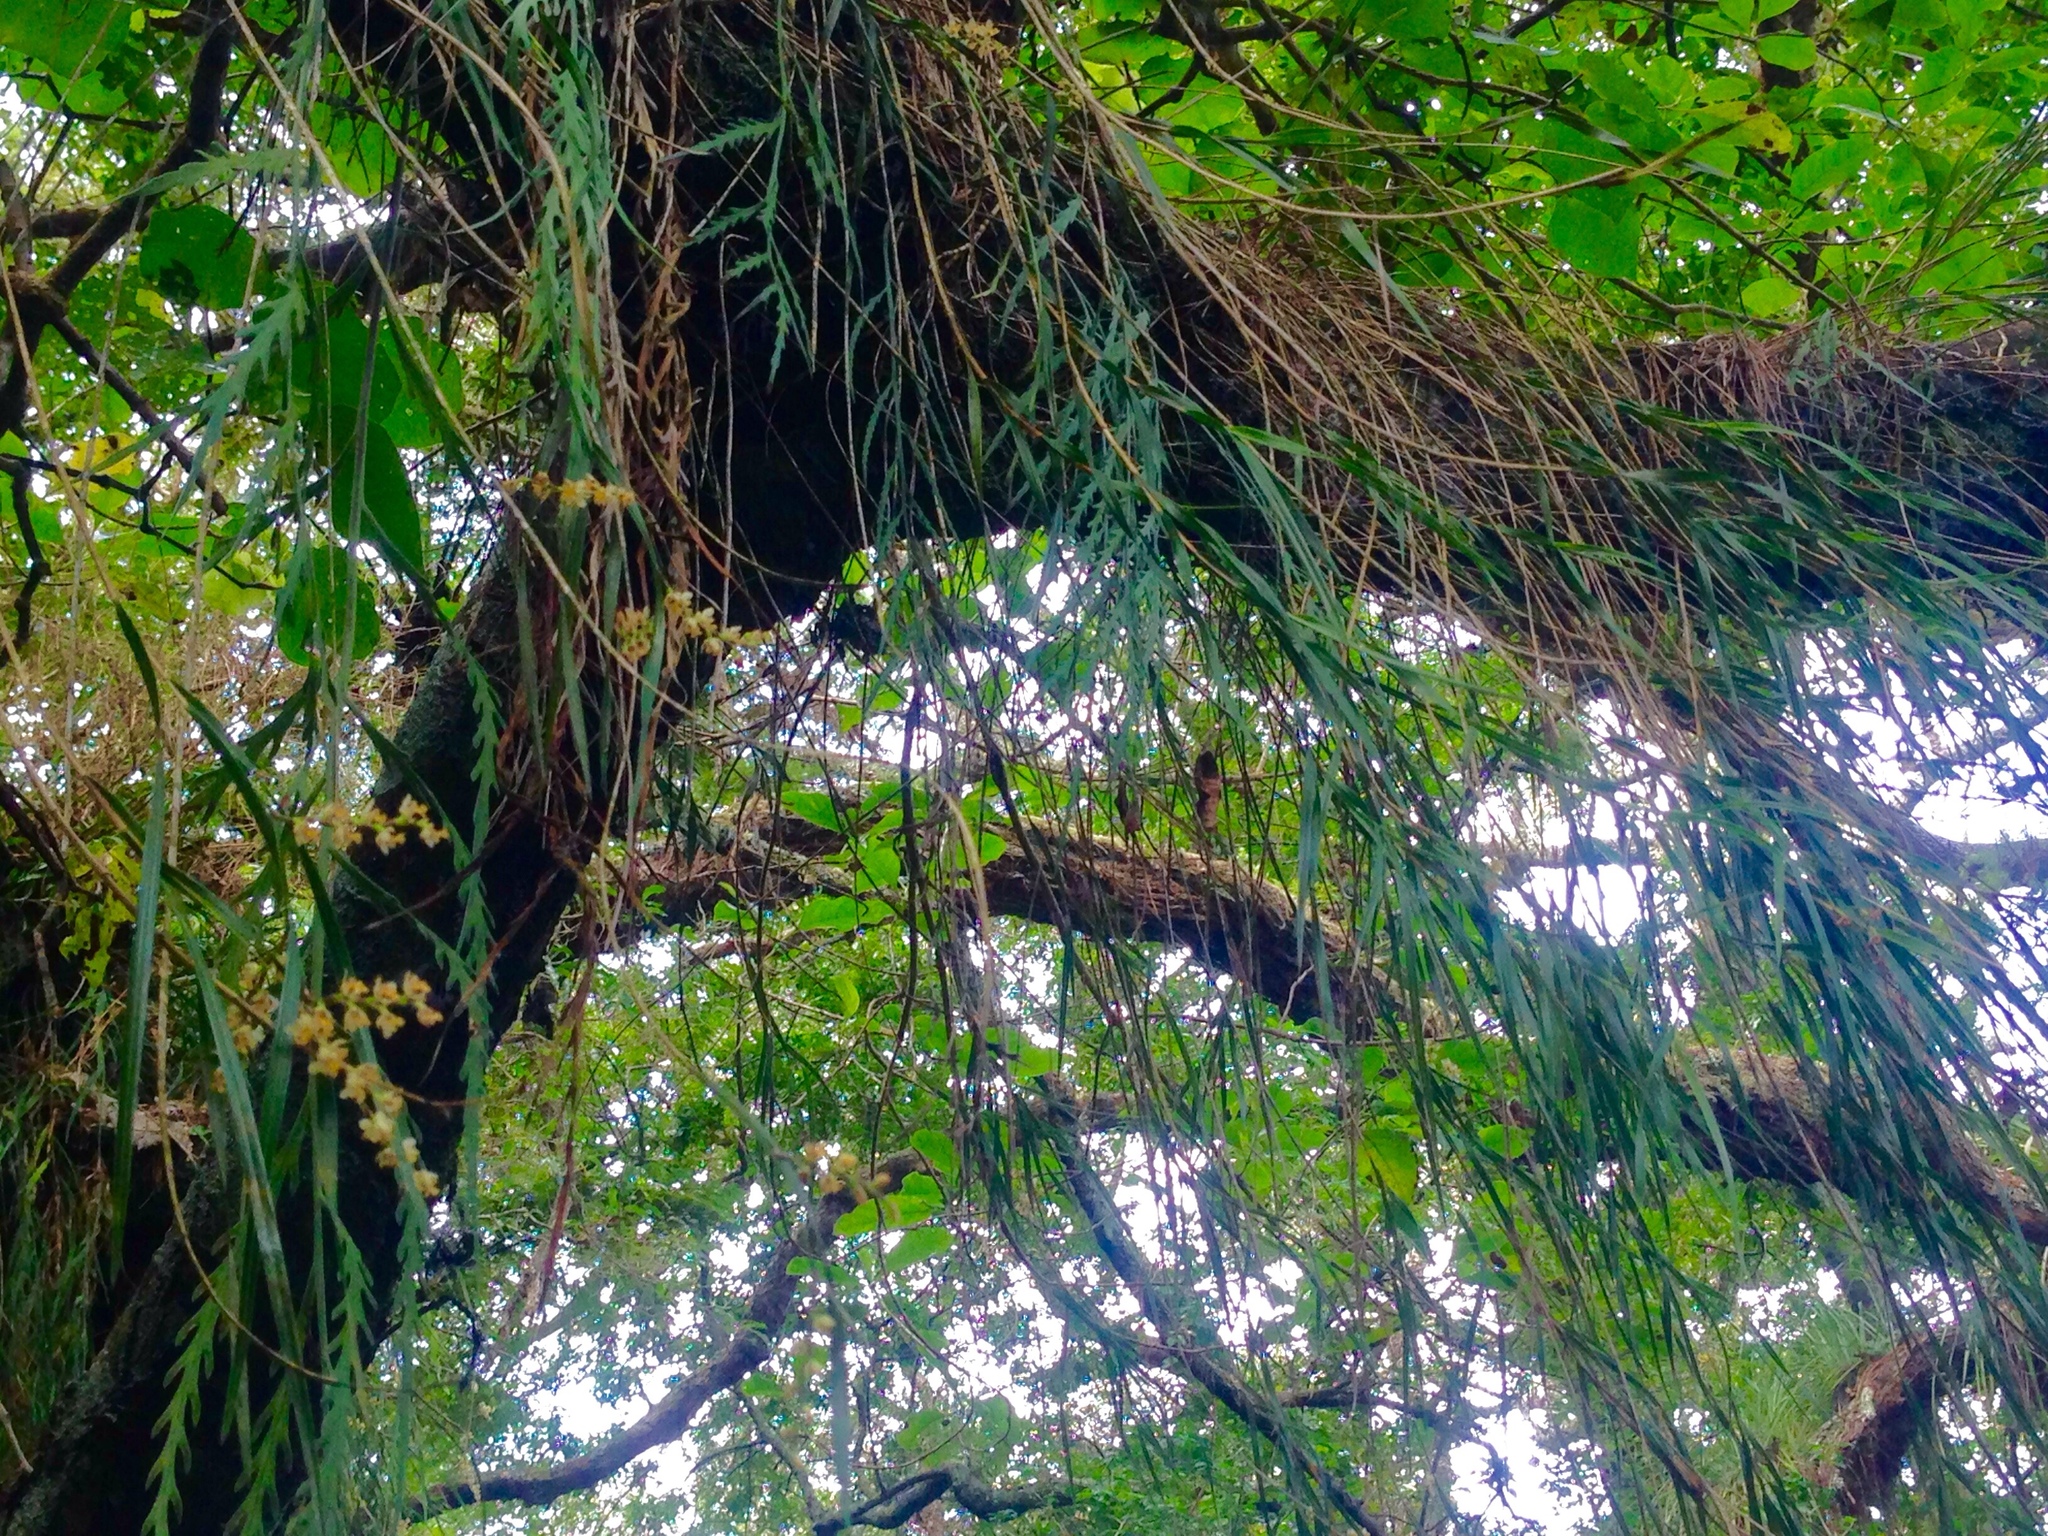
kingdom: Plantae
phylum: Tracheophyta
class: Liliopsida
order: Asparagales
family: Orchidaceae
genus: Earina
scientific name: Earina mucronata
